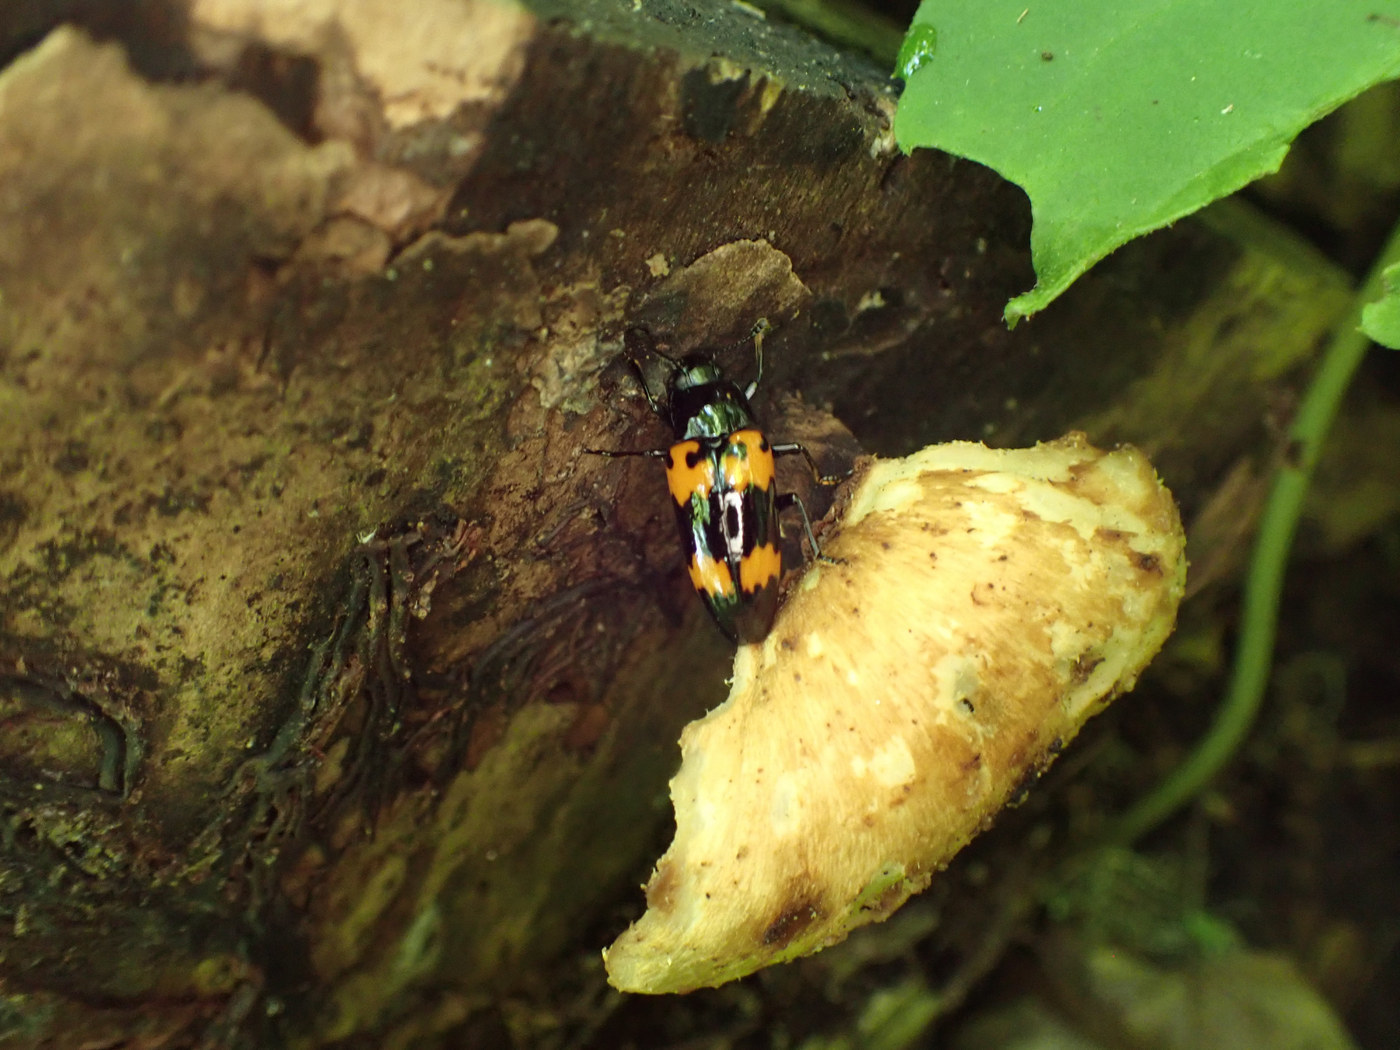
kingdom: Animalia
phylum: Arthropoda
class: Insecta
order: Coleoptera
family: Erotylidae
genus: Megalodacne
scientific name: Megalodacne heros
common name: Pleasing fungus beetle
